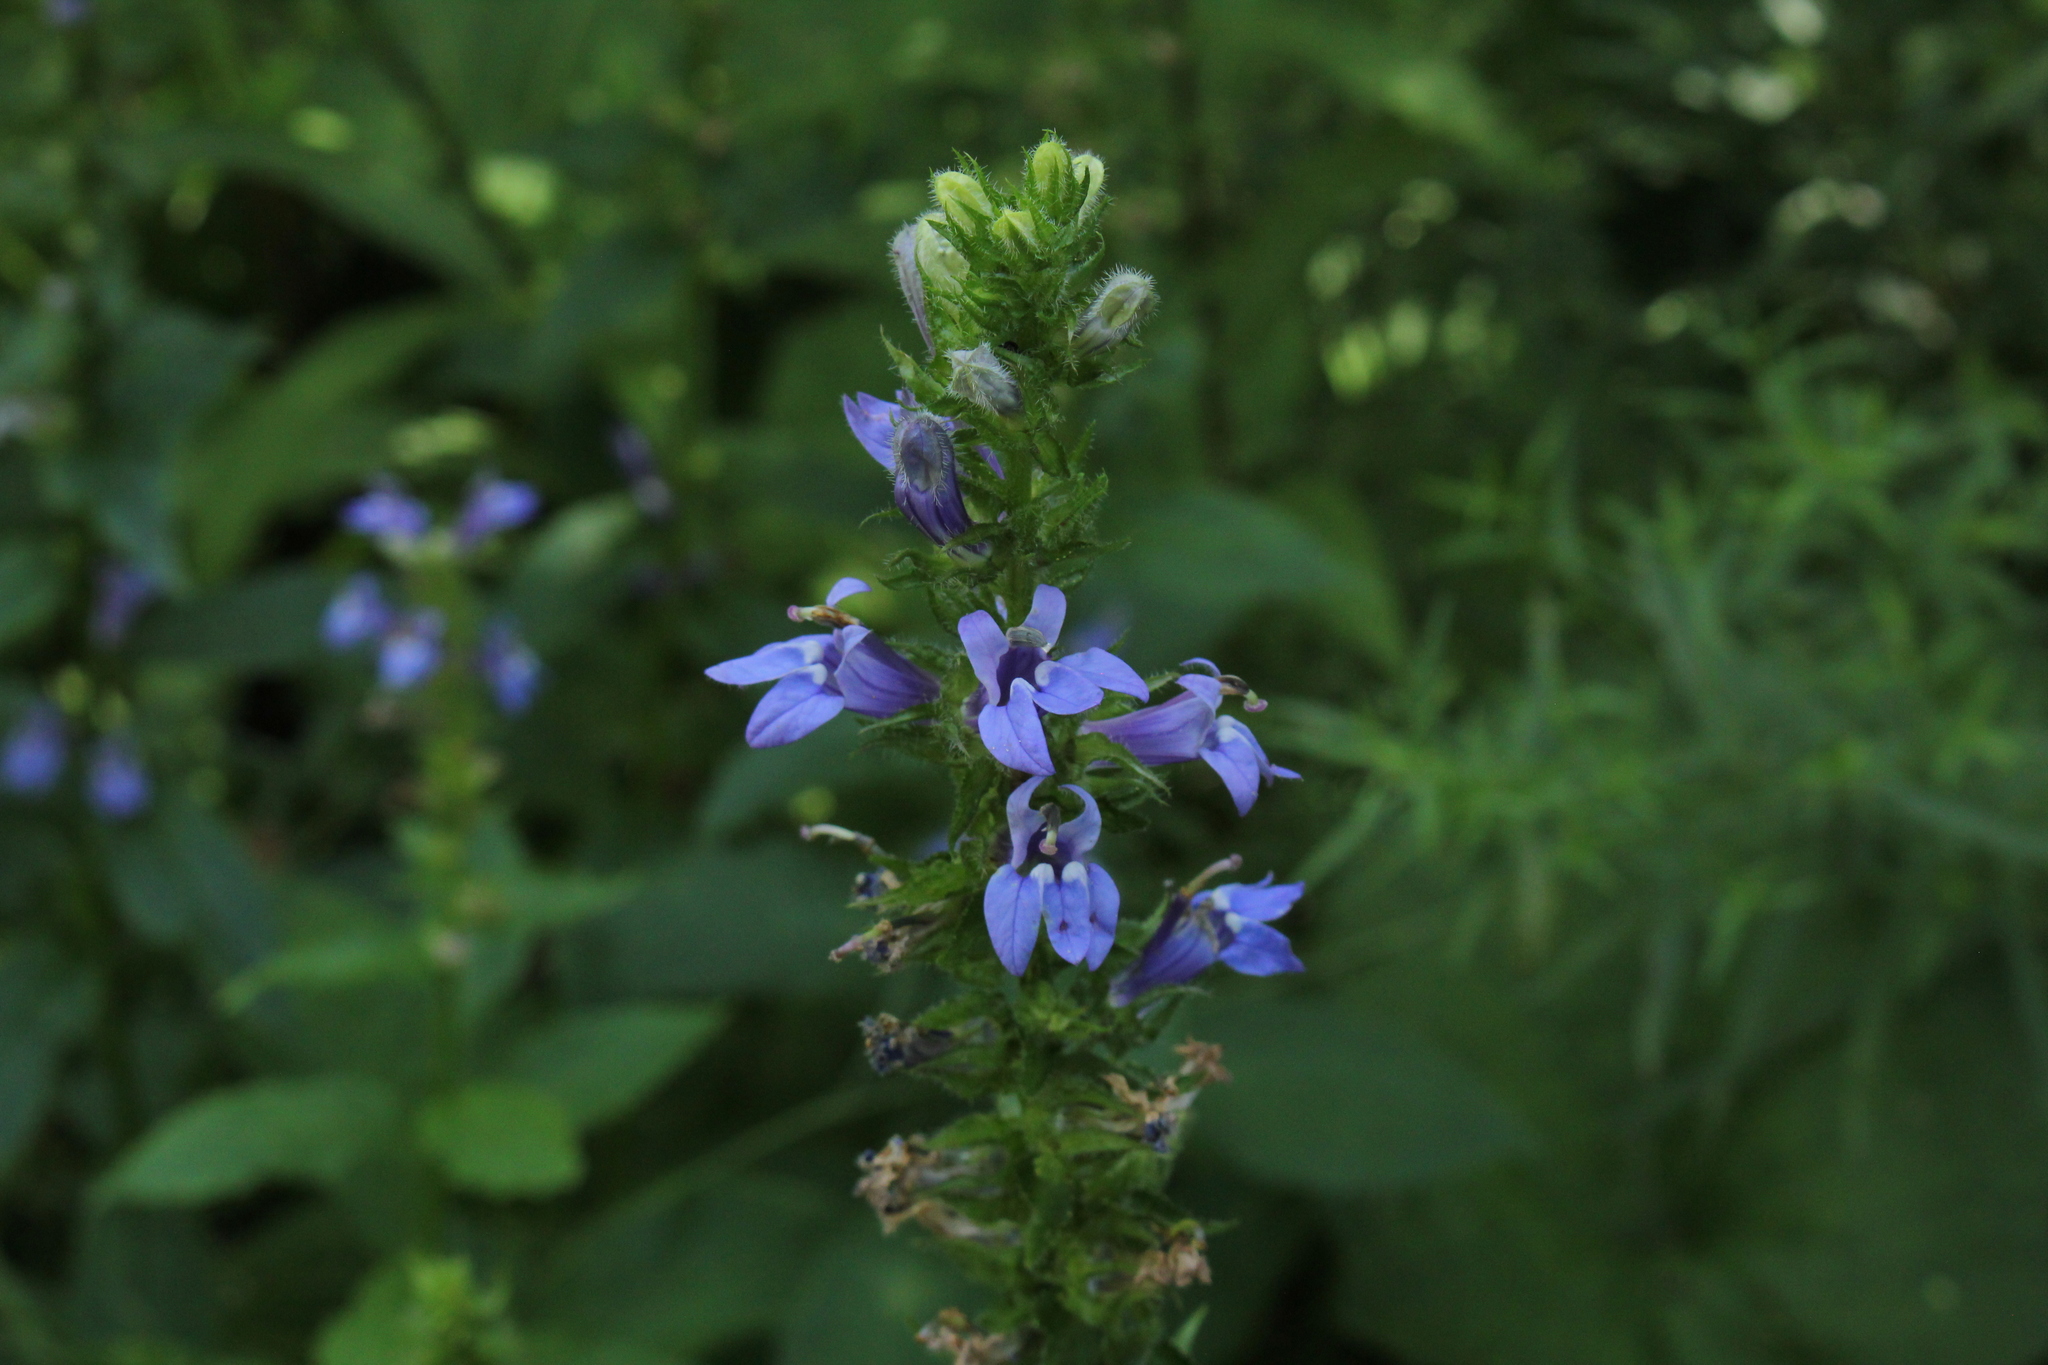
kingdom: Plantae
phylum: Tracheophyta
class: Magnoliopsida
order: Asterales
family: Campanulaceae
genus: Lobelia
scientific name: Lobelia siphilitica
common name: Great lobelia
